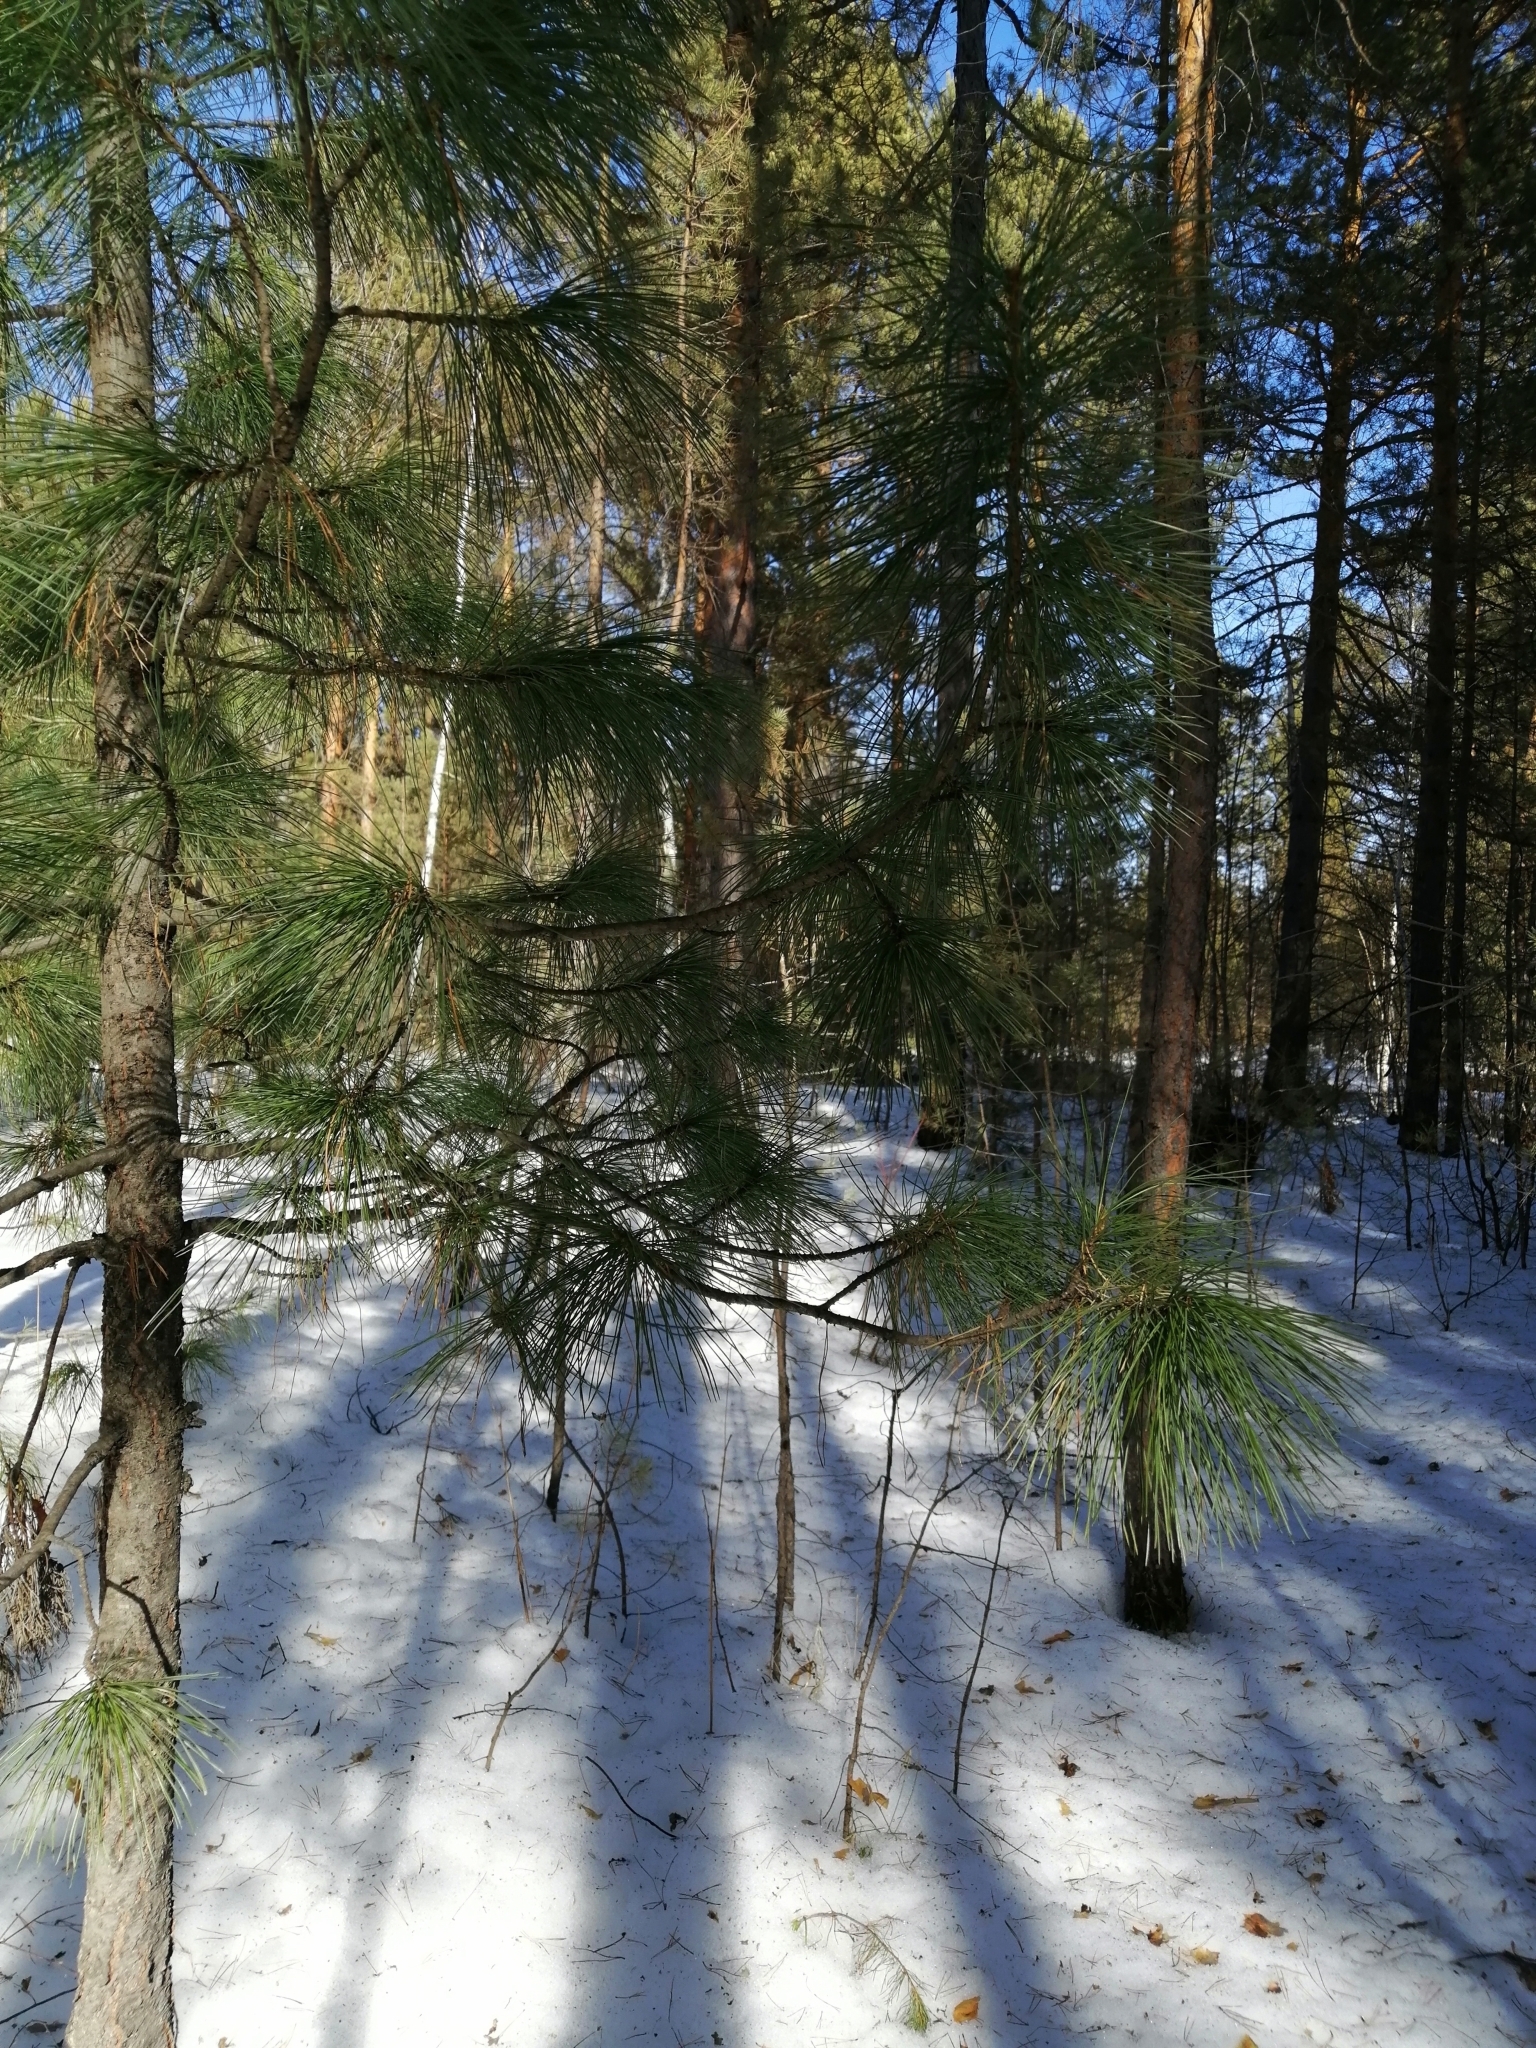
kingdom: Plantae
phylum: Tracheophyta
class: Pinopsida
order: Pinales
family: Pinaceae
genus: Pinus
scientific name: Pinus sibirica
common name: Siberian pine
